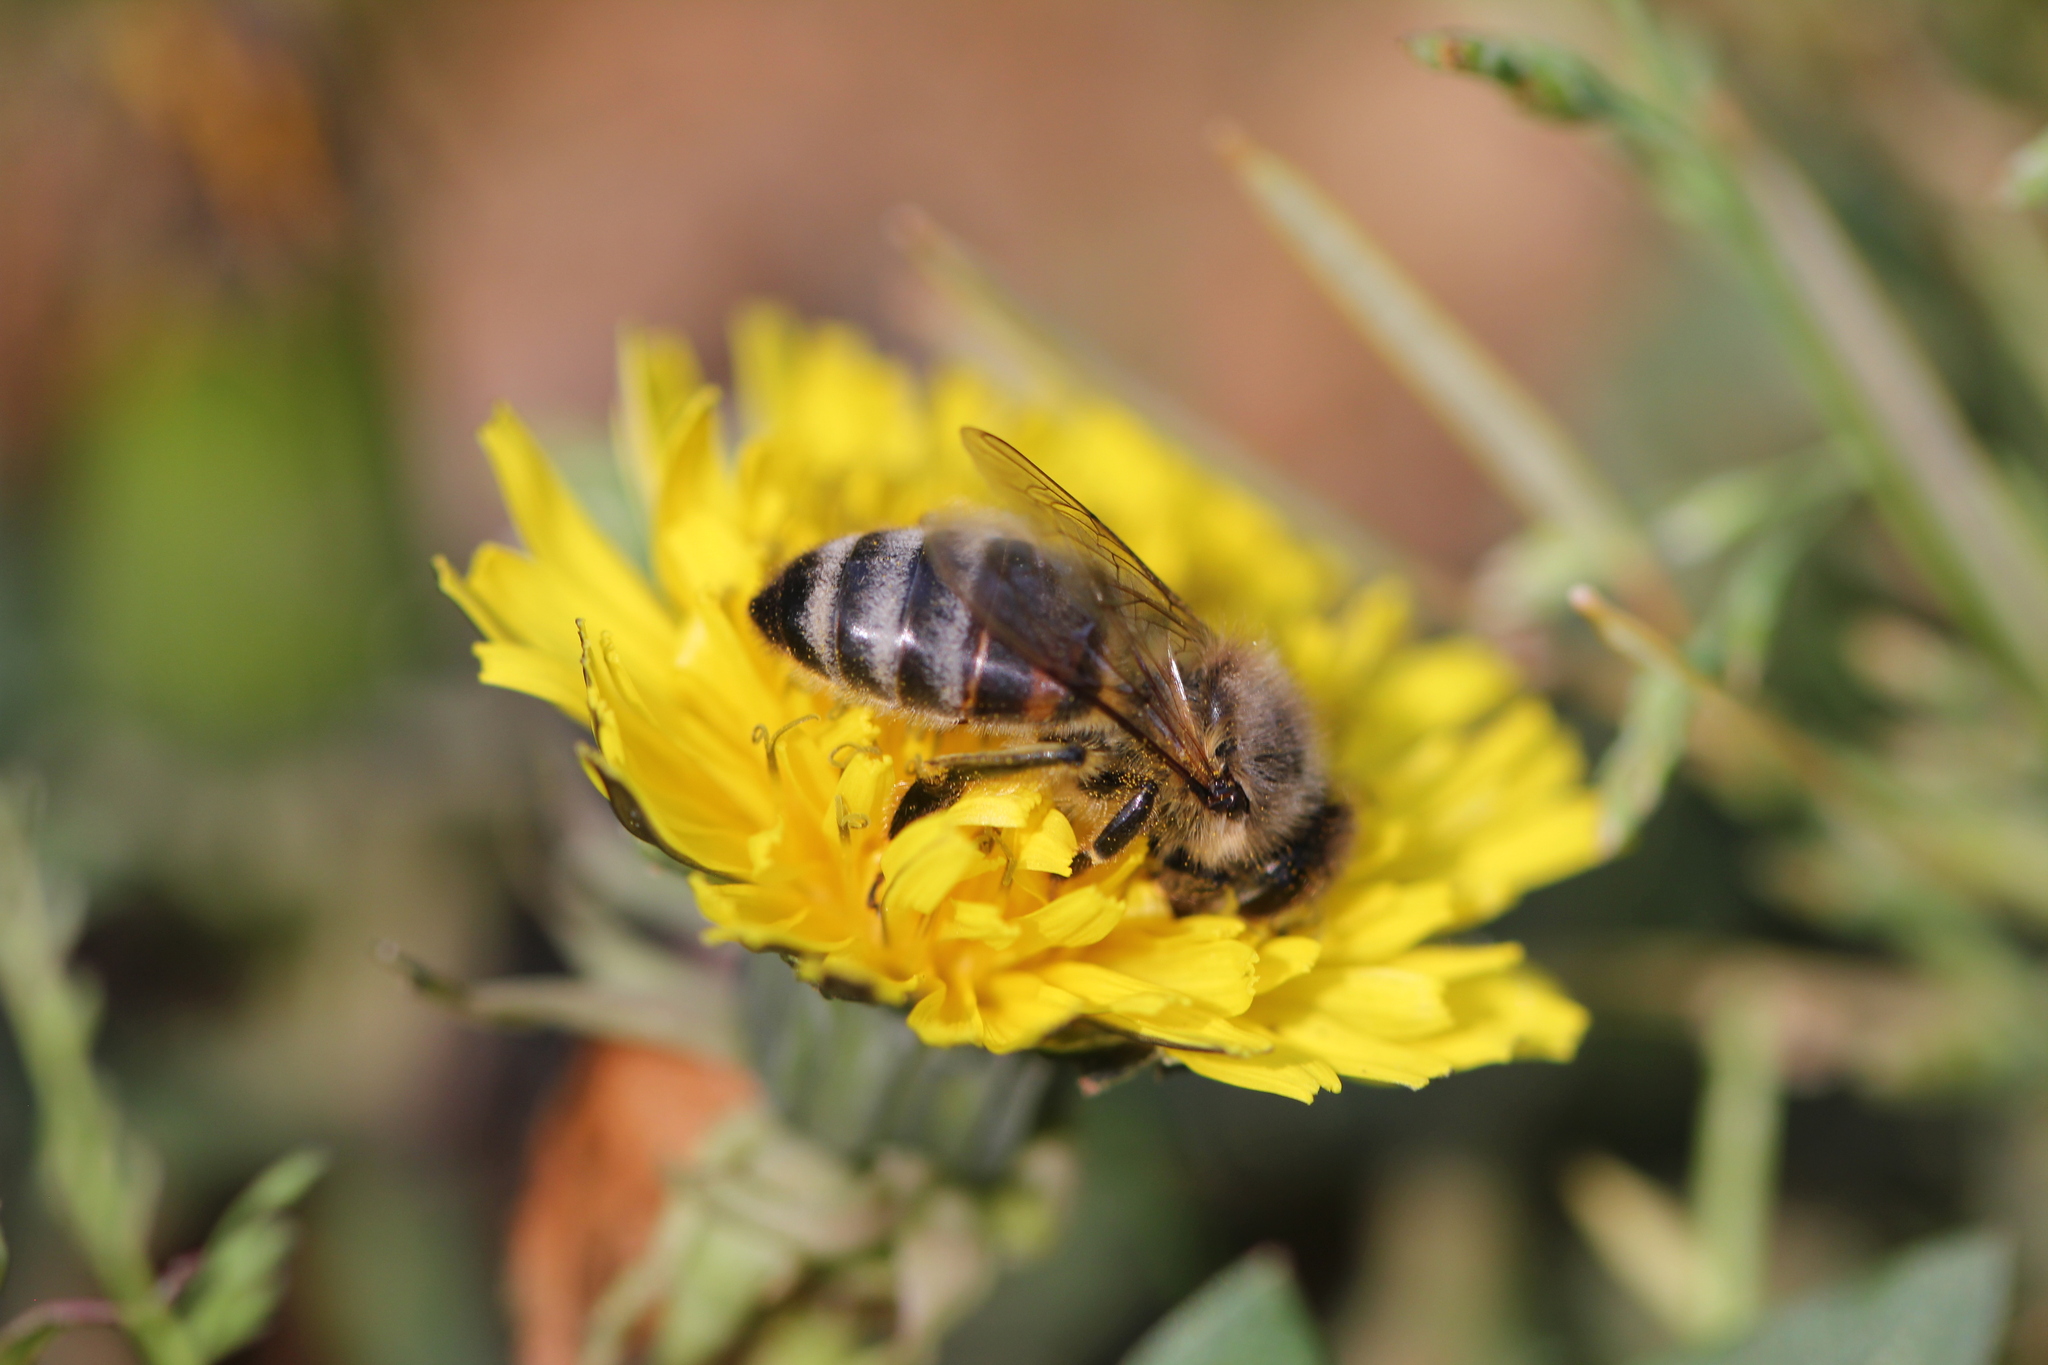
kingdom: Animalia
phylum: Arthropoda
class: Insecta
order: Hymenoptera
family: Apidae
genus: Apis
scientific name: Apis mellifera
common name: Honey bee
